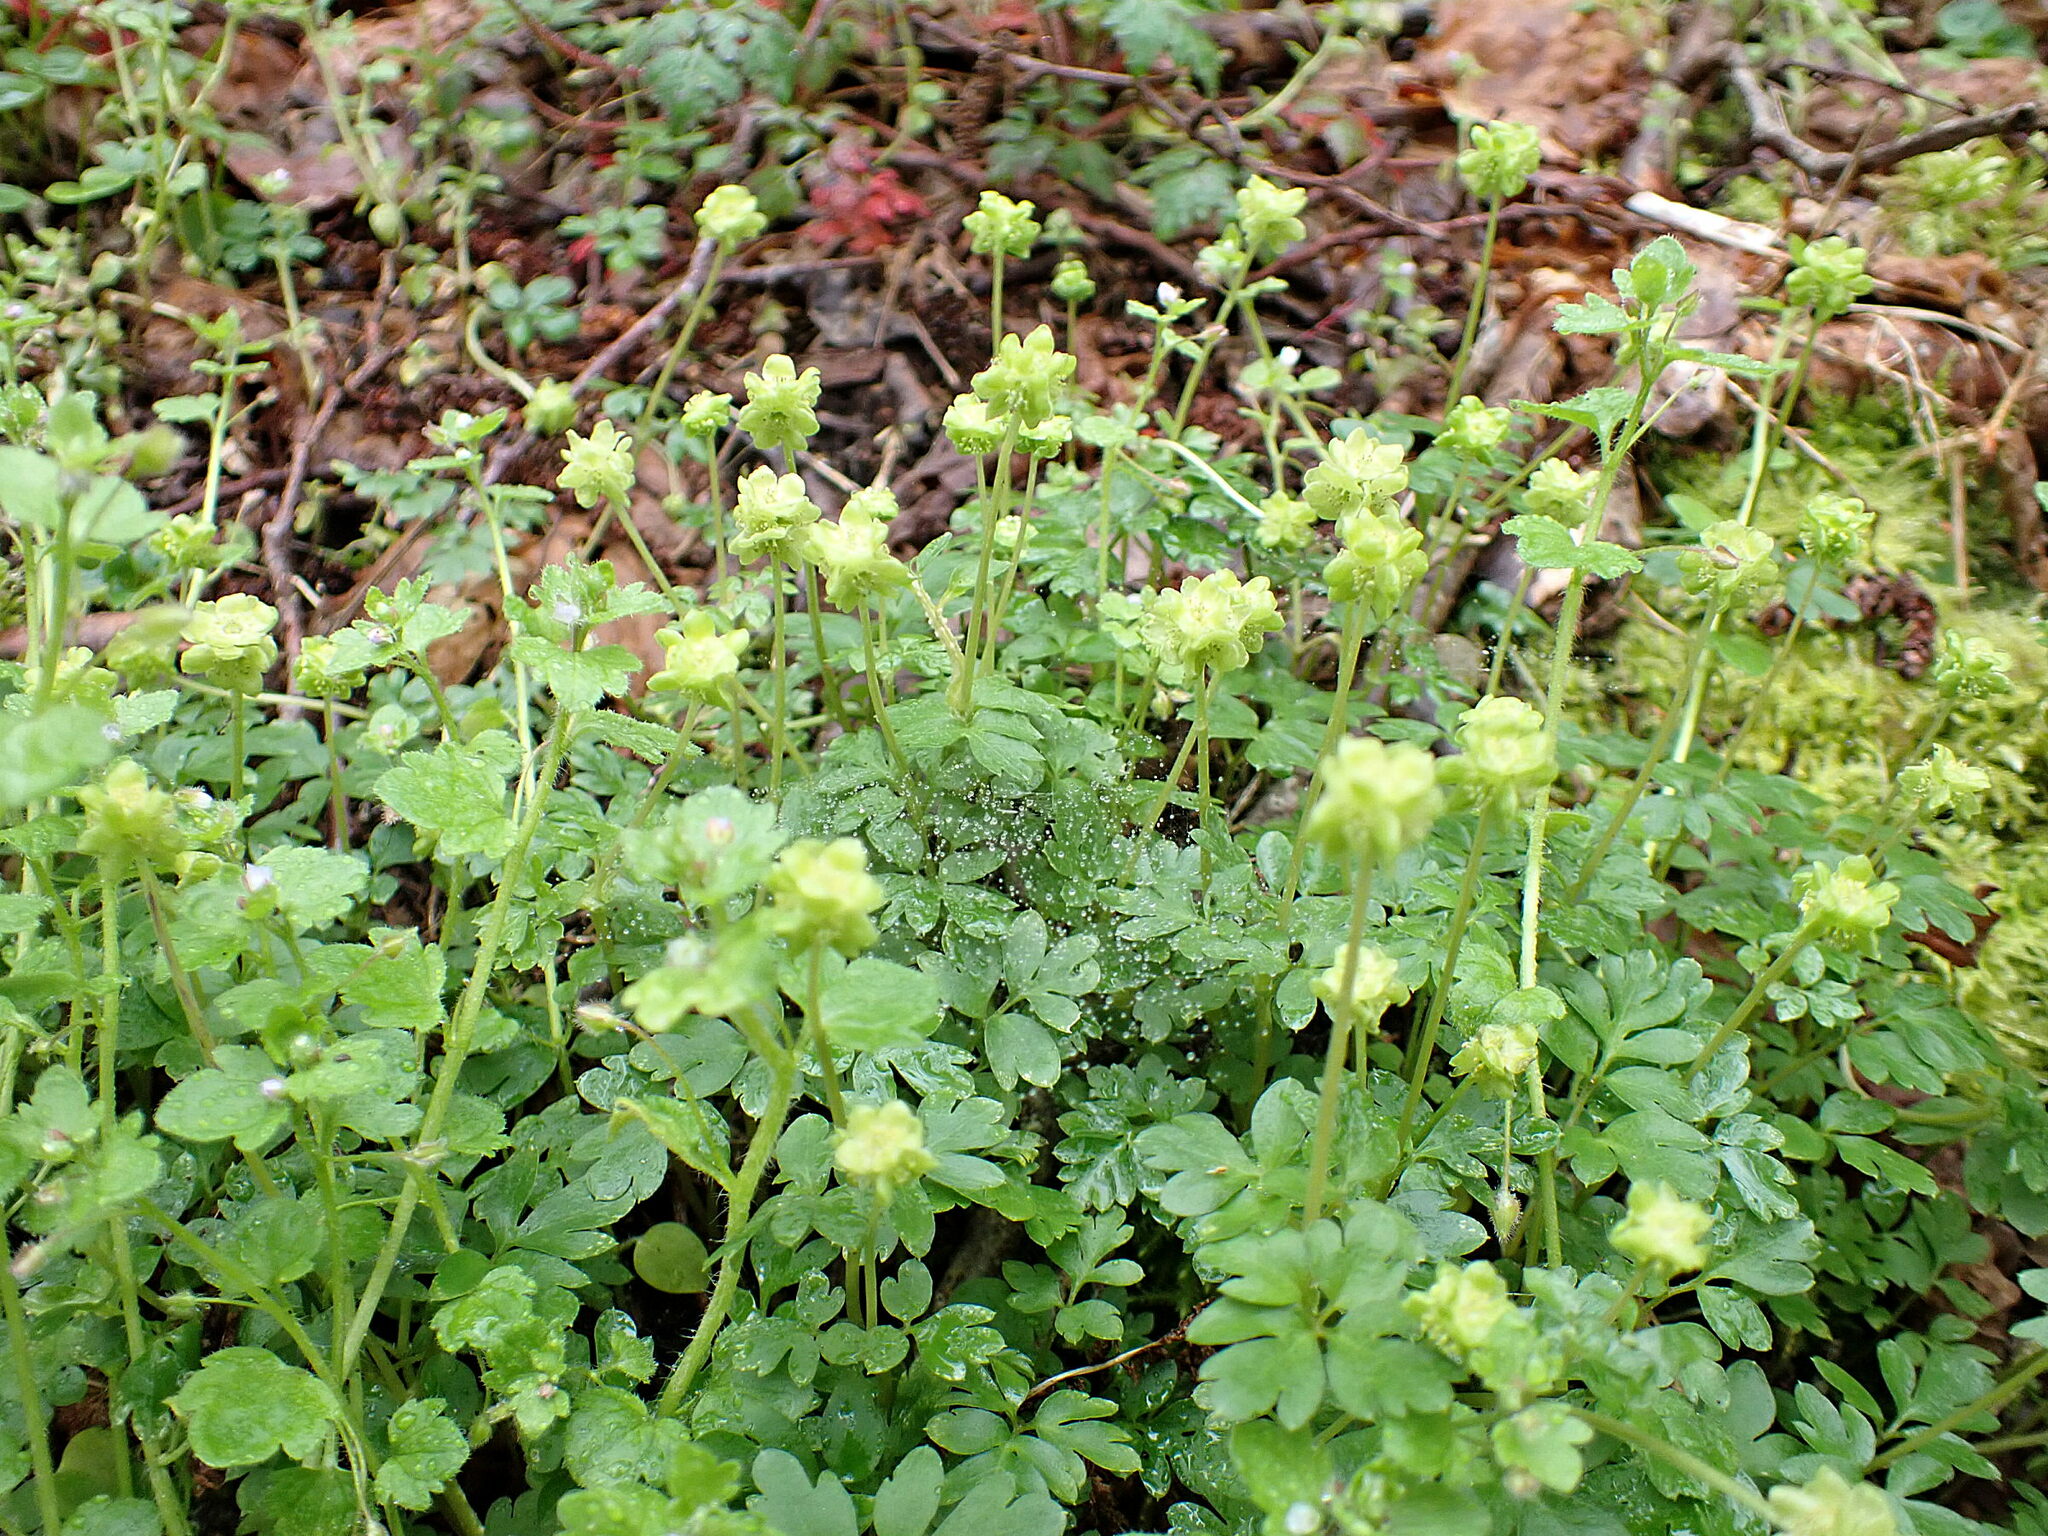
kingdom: Plantae
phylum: Tracheophyta
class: Magnoliopsida
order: Dipsacales
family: Viburnaceae
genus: Adoxa
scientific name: Adoxa moschatellina
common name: Moschatel
